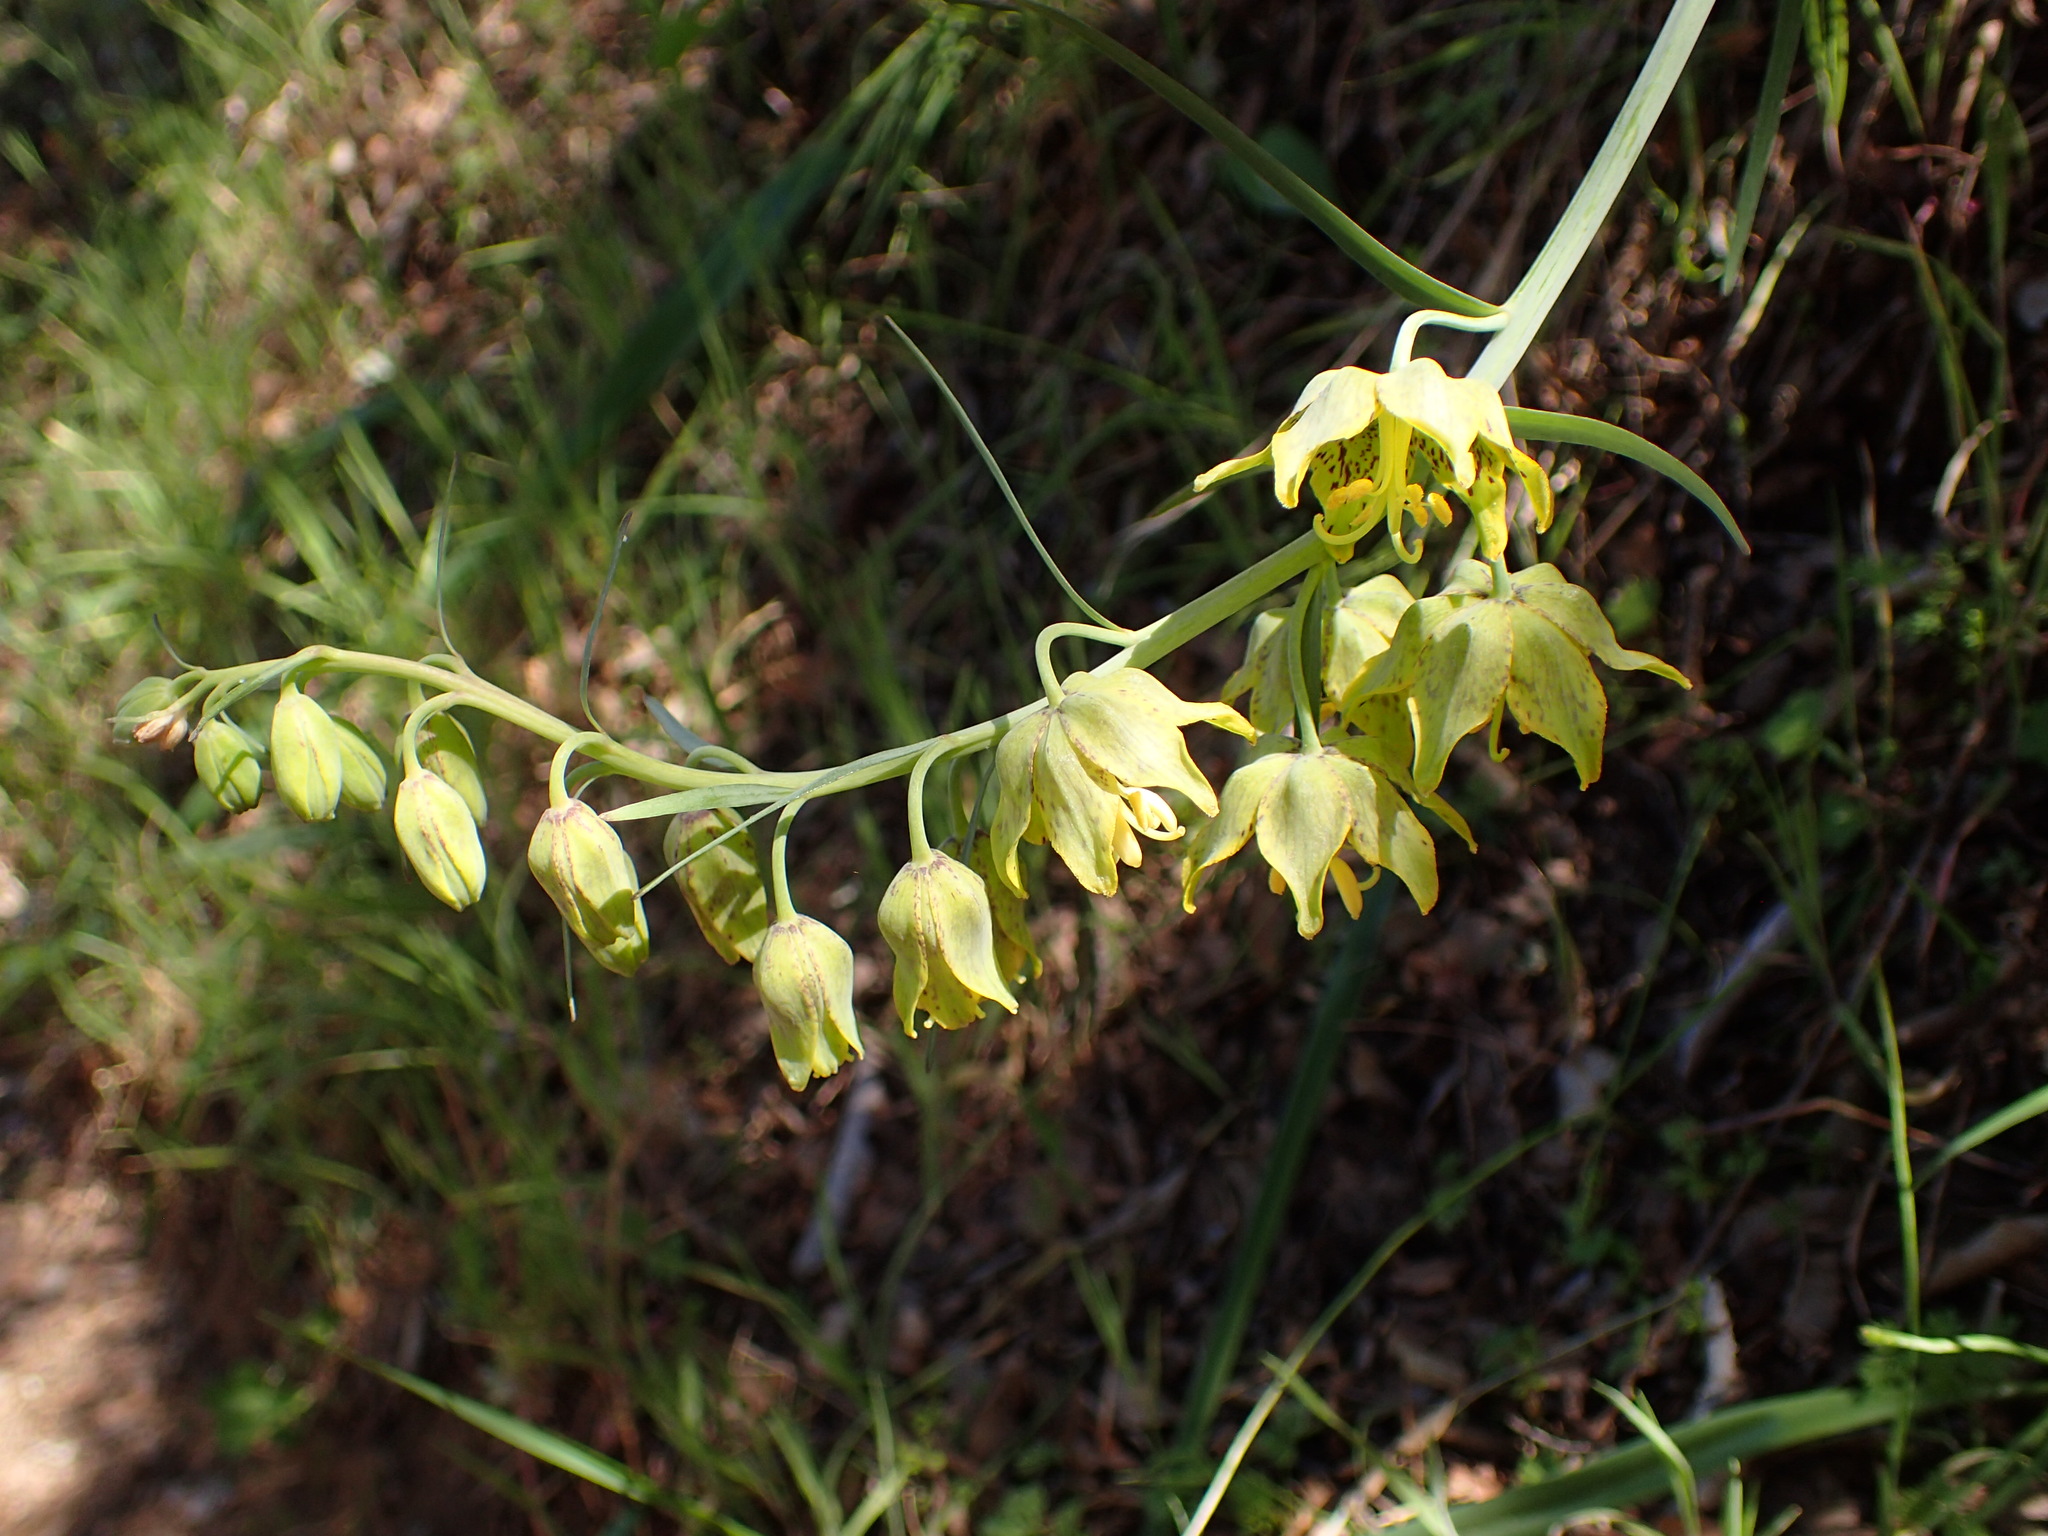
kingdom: Plantae
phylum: Tracheophyta
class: Liliopsida
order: Liliales
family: Liliaceae
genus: Fritillaria
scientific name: Fritillaria ojaiensis
